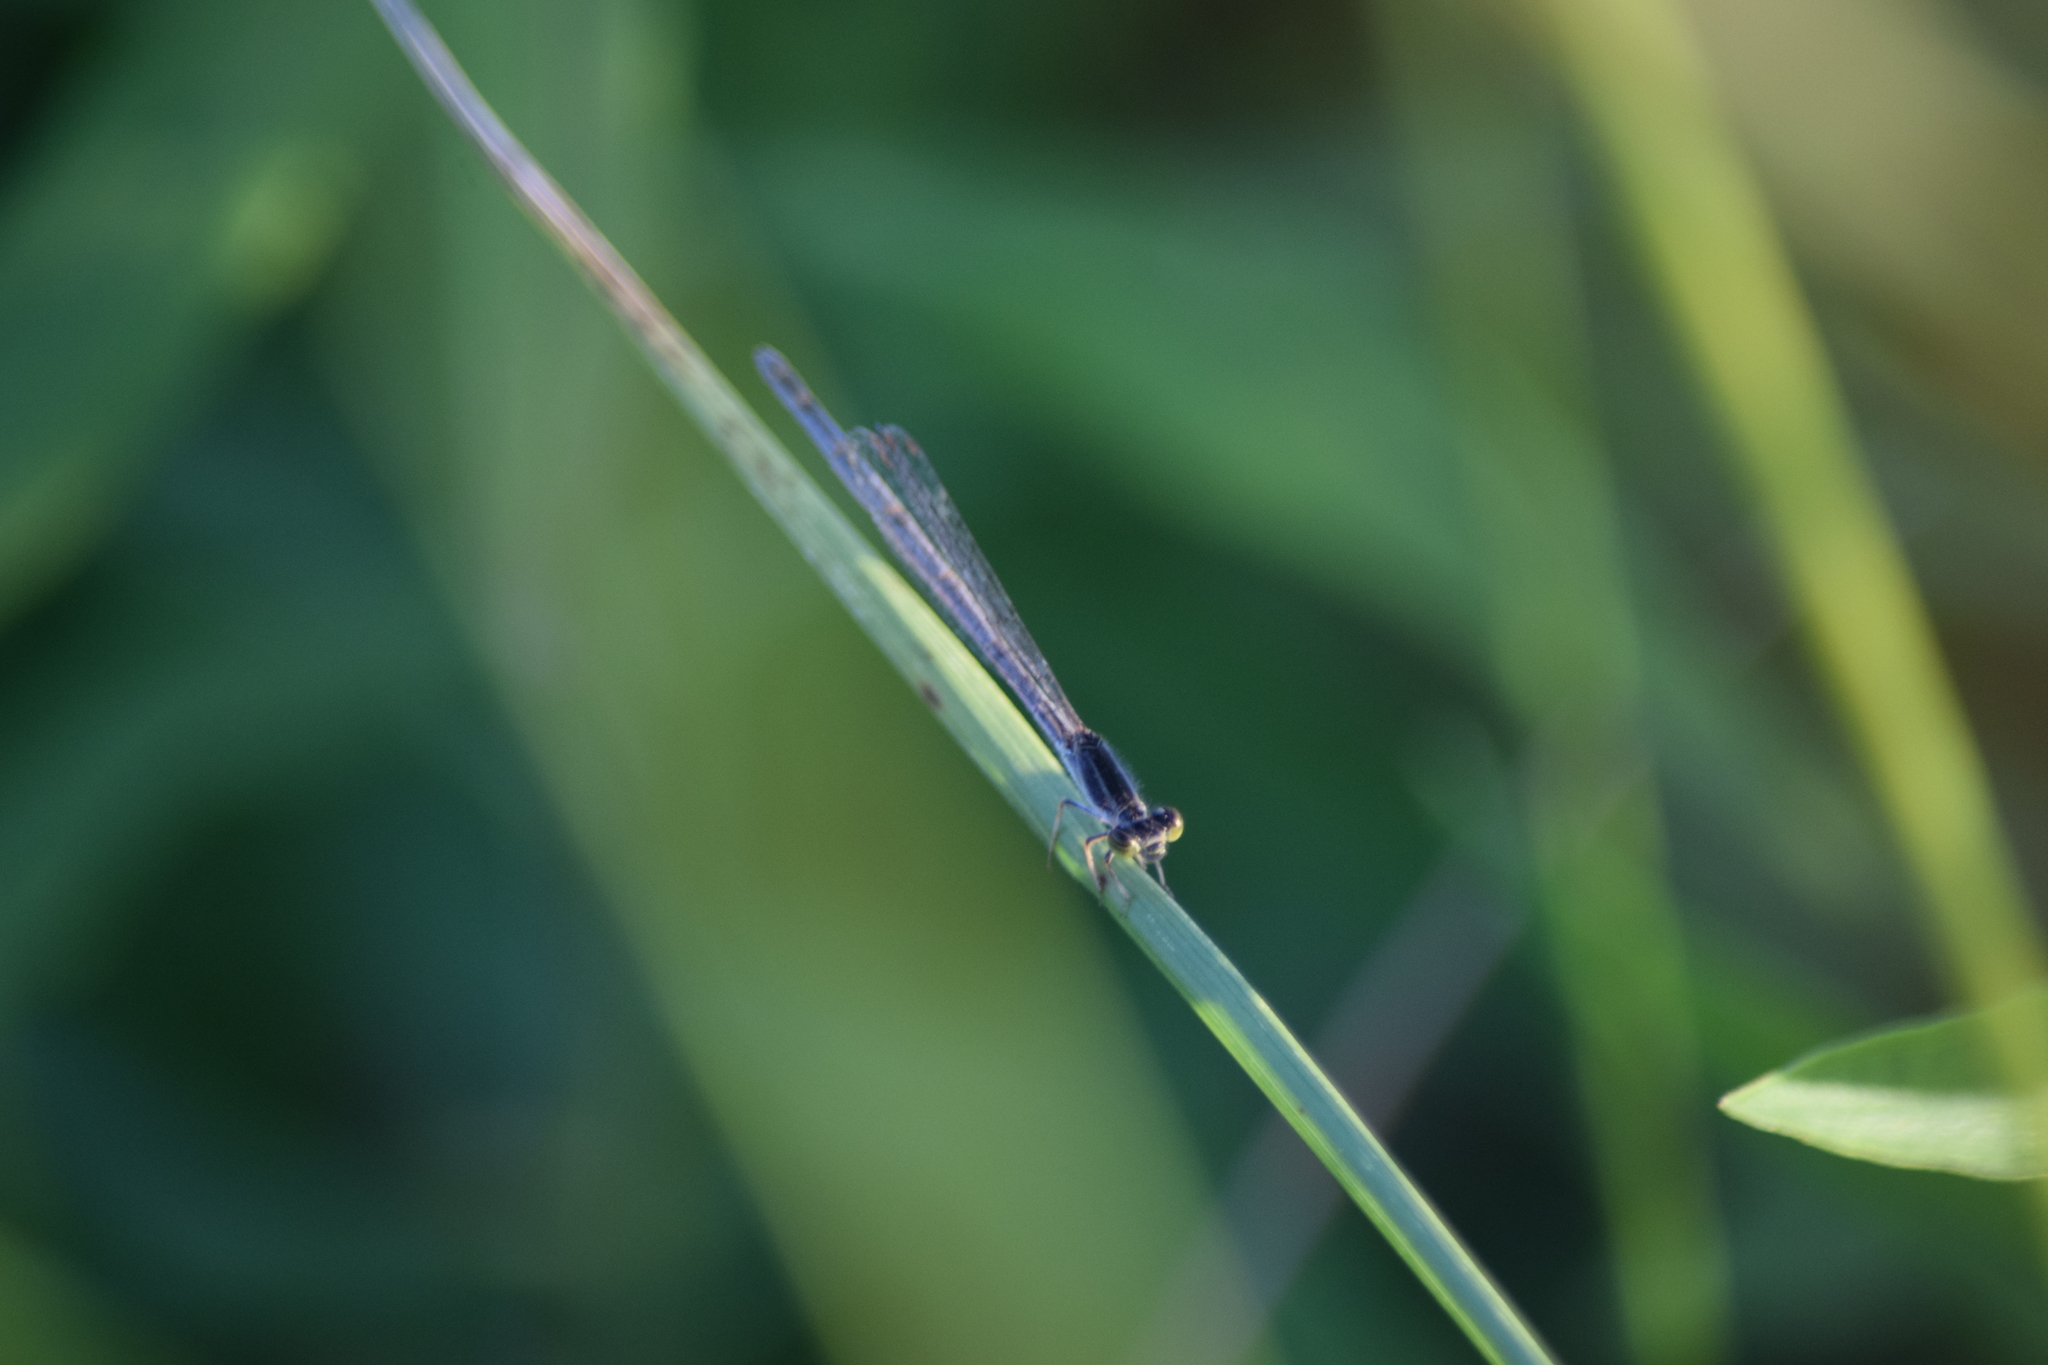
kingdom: Animalia
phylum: Arthropoda
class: Insecta
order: Odonata
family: Coenagrionidae
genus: Ischnura
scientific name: Ischnura hastata
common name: Citrine forktail
